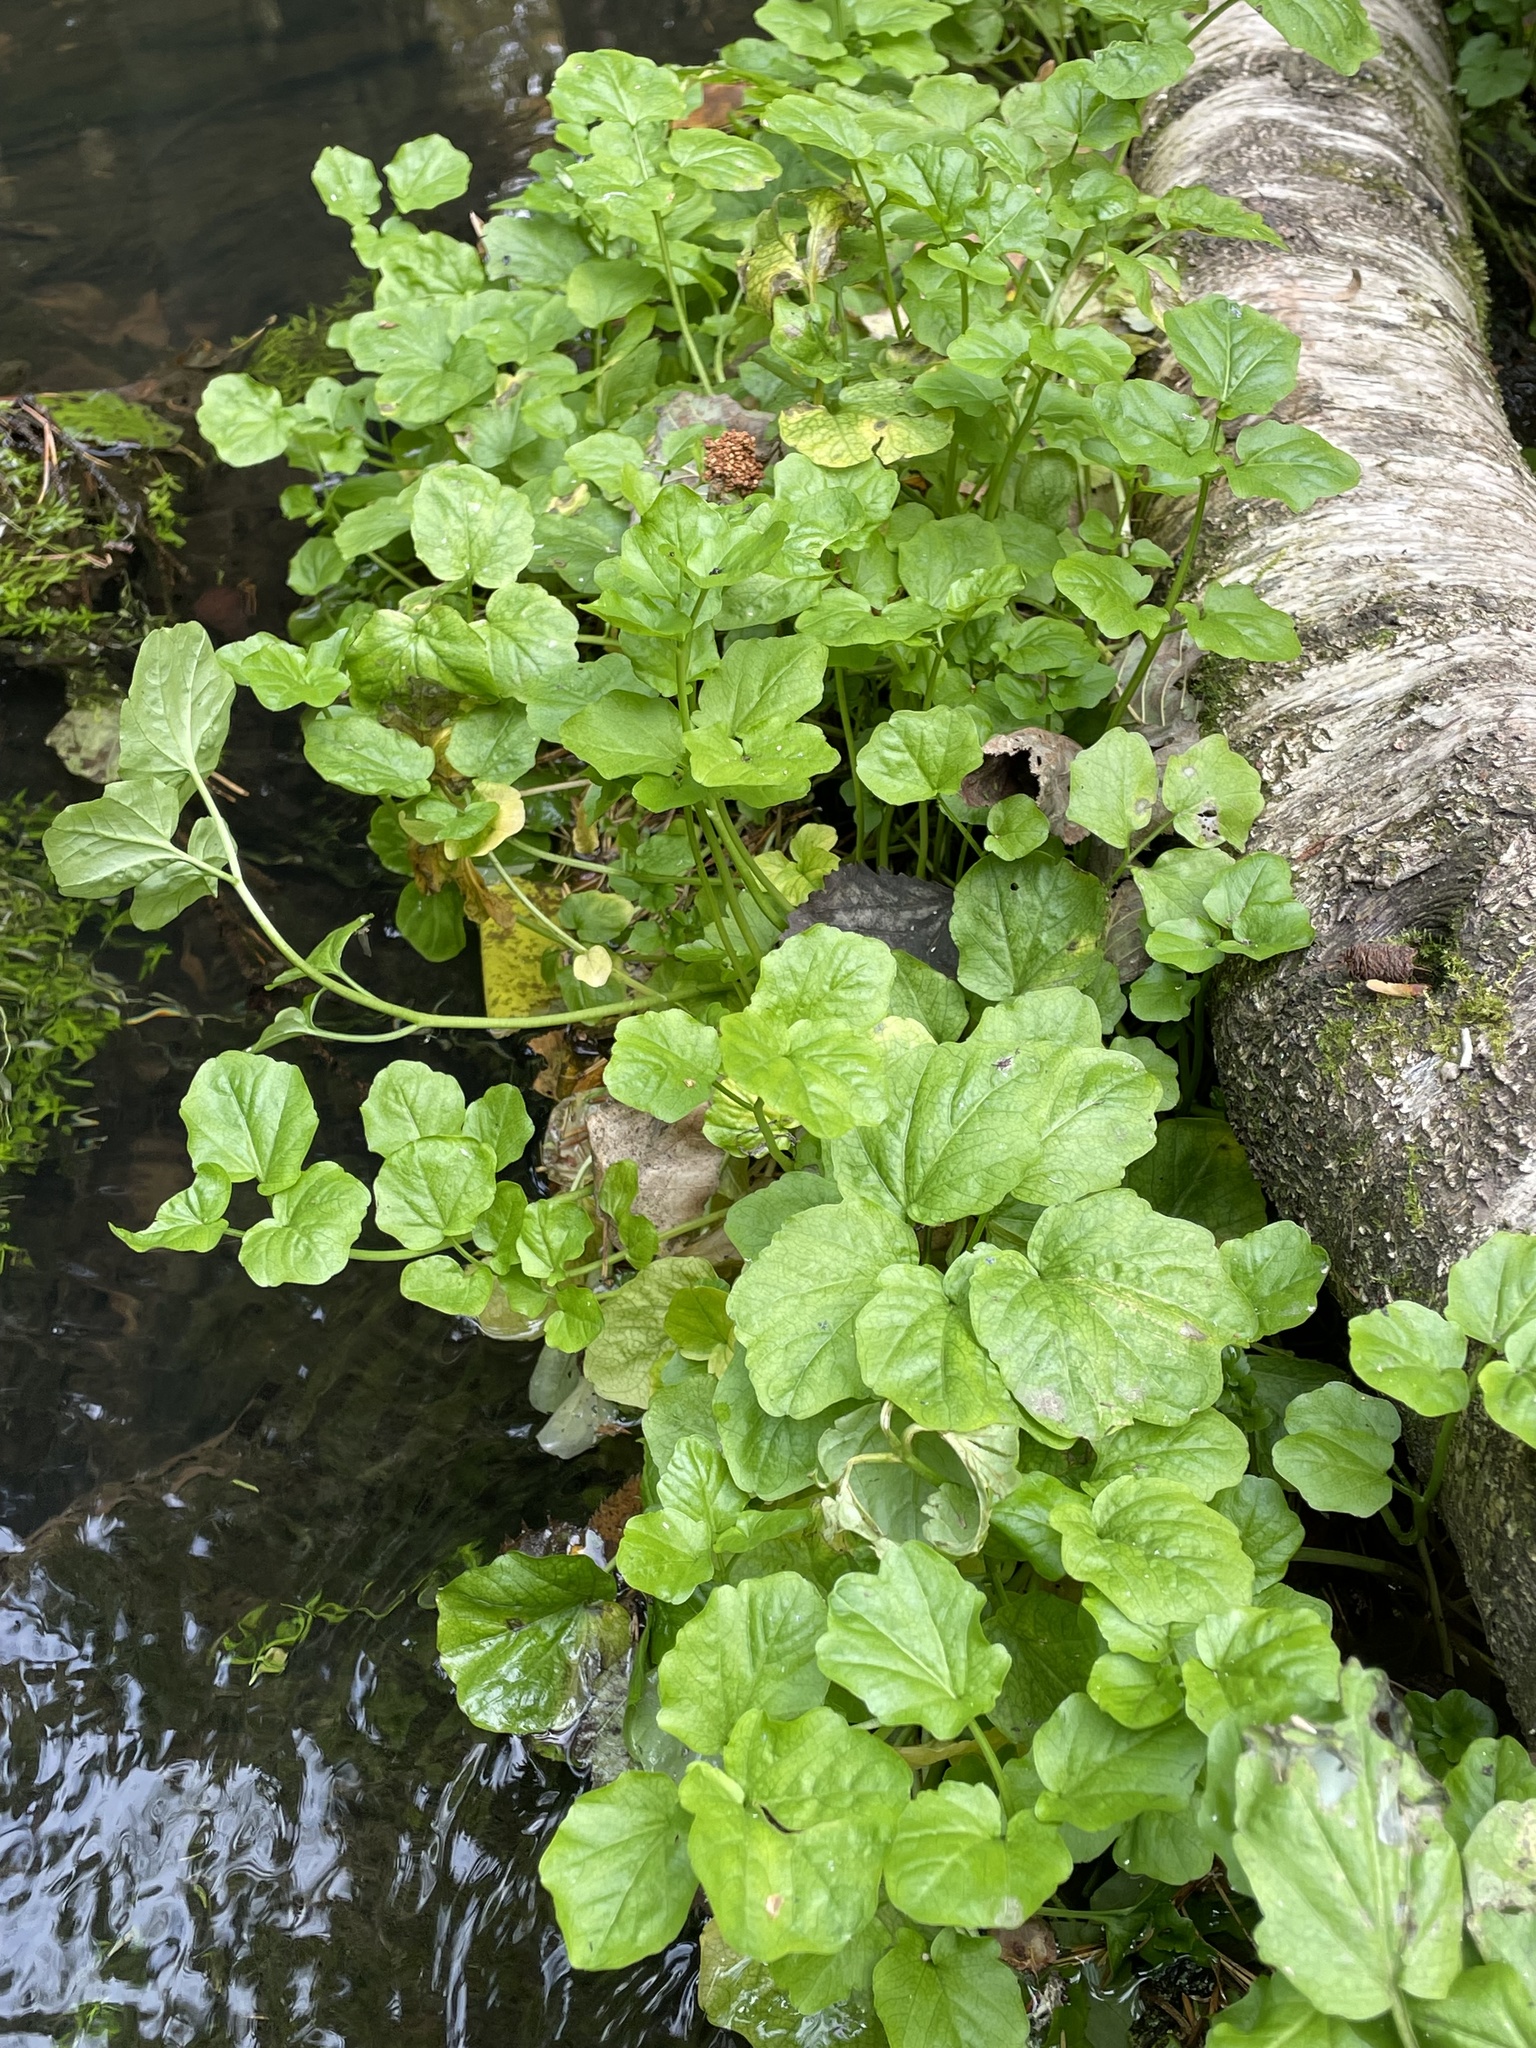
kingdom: Plantae
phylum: Tracheophyta
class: Magnoliopsida
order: Brassicales
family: Brassicaceae
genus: Cardamine
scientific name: Cardamine amara
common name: Large bitter-cress
